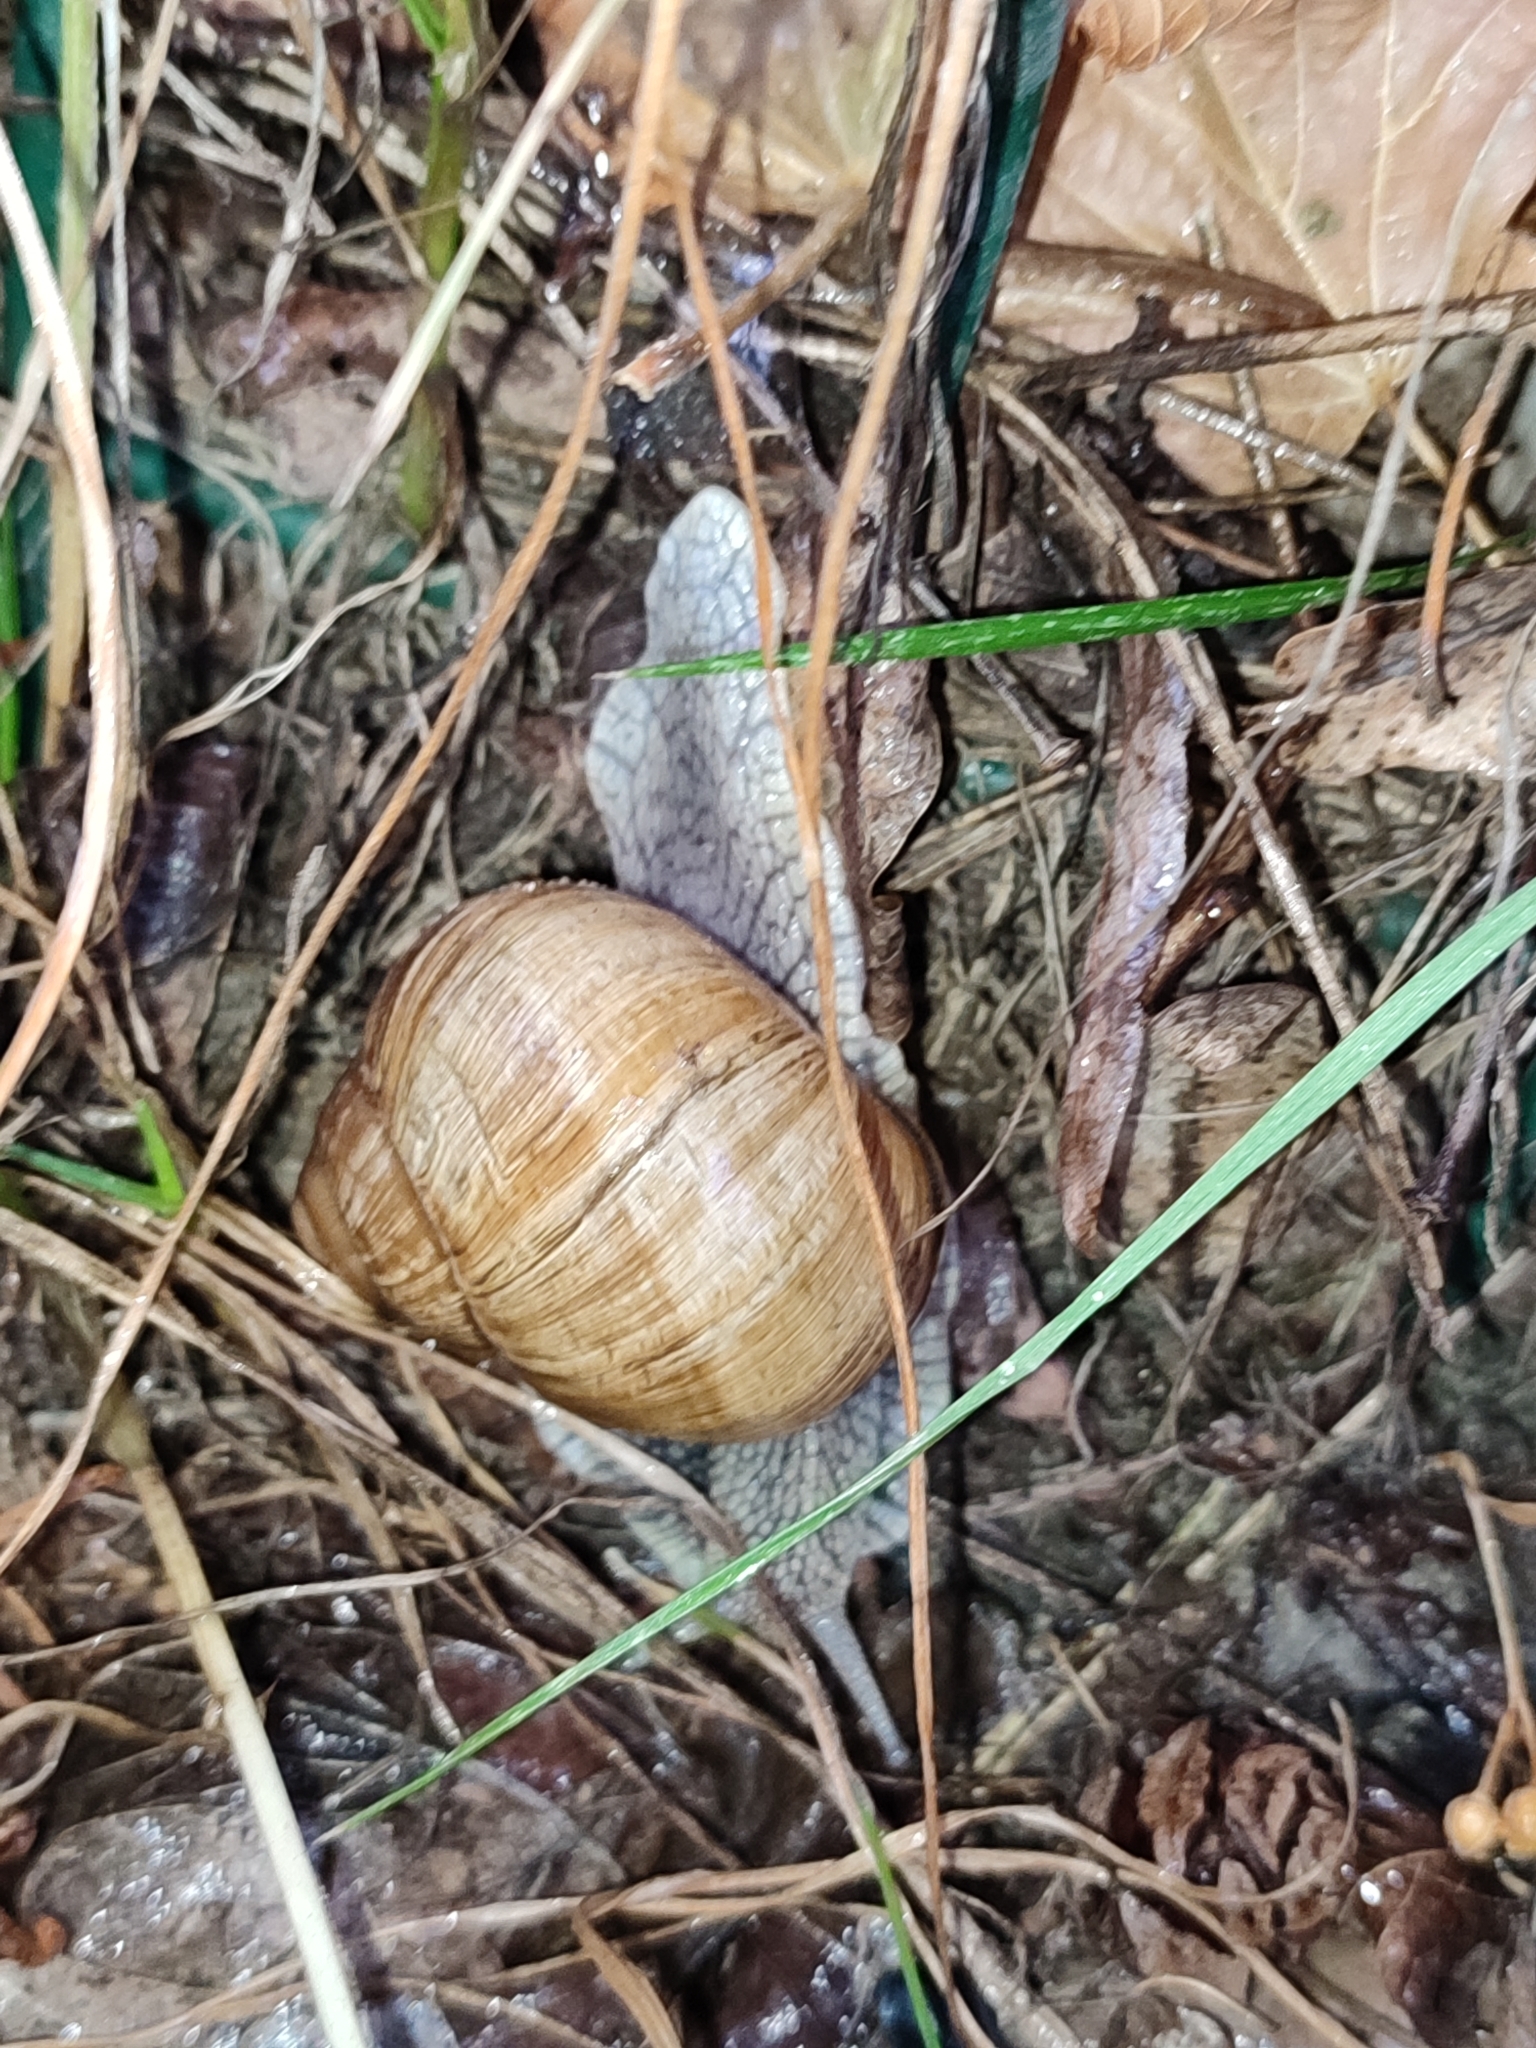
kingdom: Animalia
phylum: Mollusca
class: Gastropoda
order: Stylommatophora
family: Helicidae
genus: Helix
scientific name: Helix pomatia
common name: Roman snail
